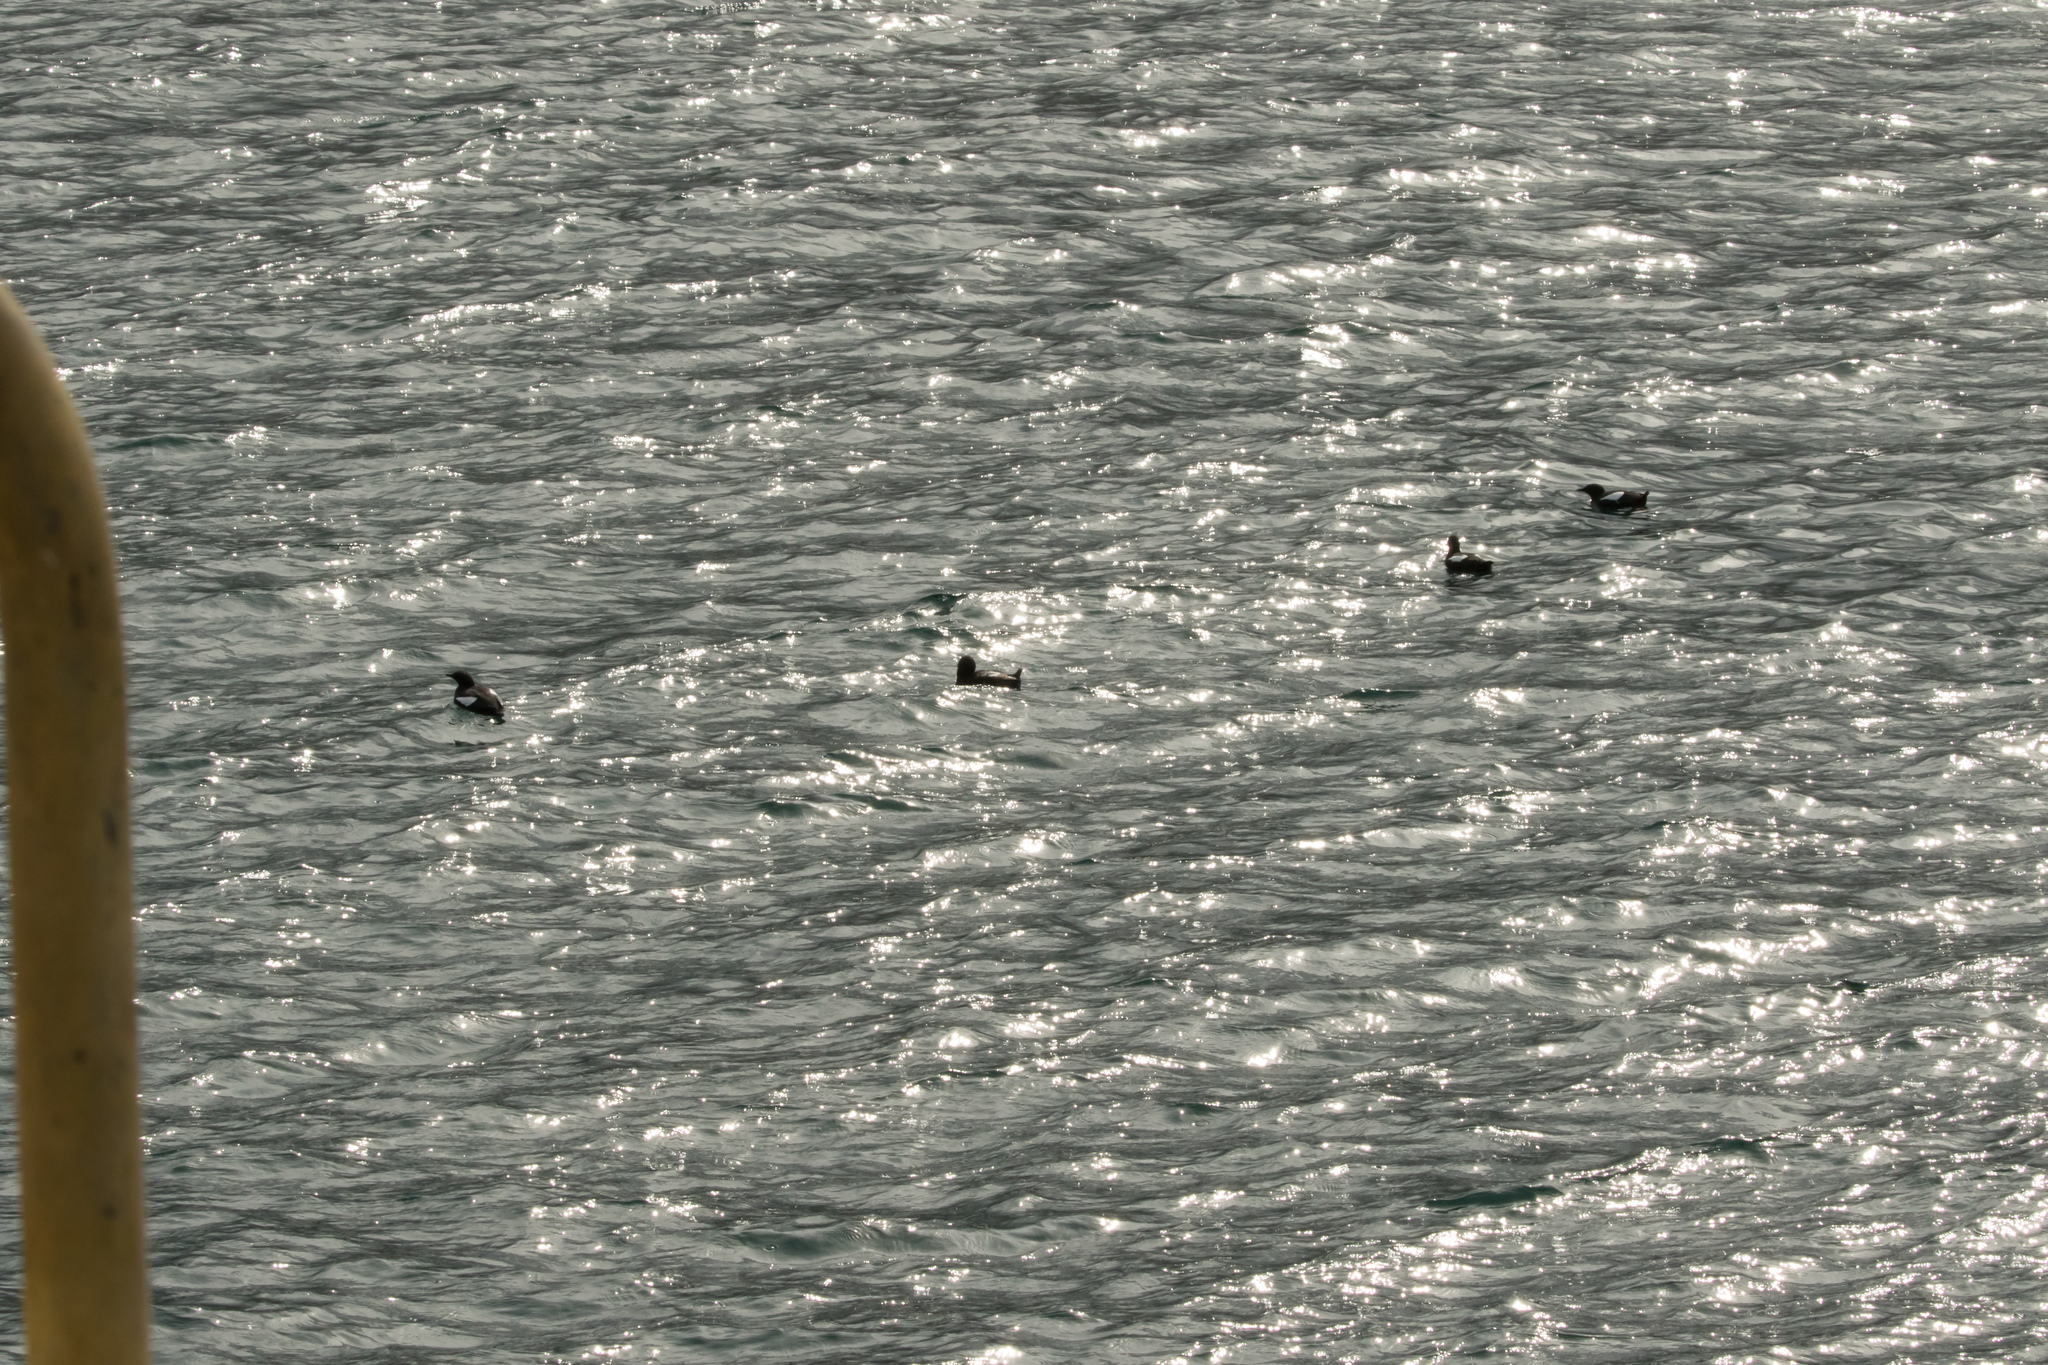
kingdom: Animalia
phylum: Chordata
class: Aves
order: Charadriiformes
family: Alcidae
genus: Cepphus
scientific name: Cepphus grylle
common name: Black guillemot
